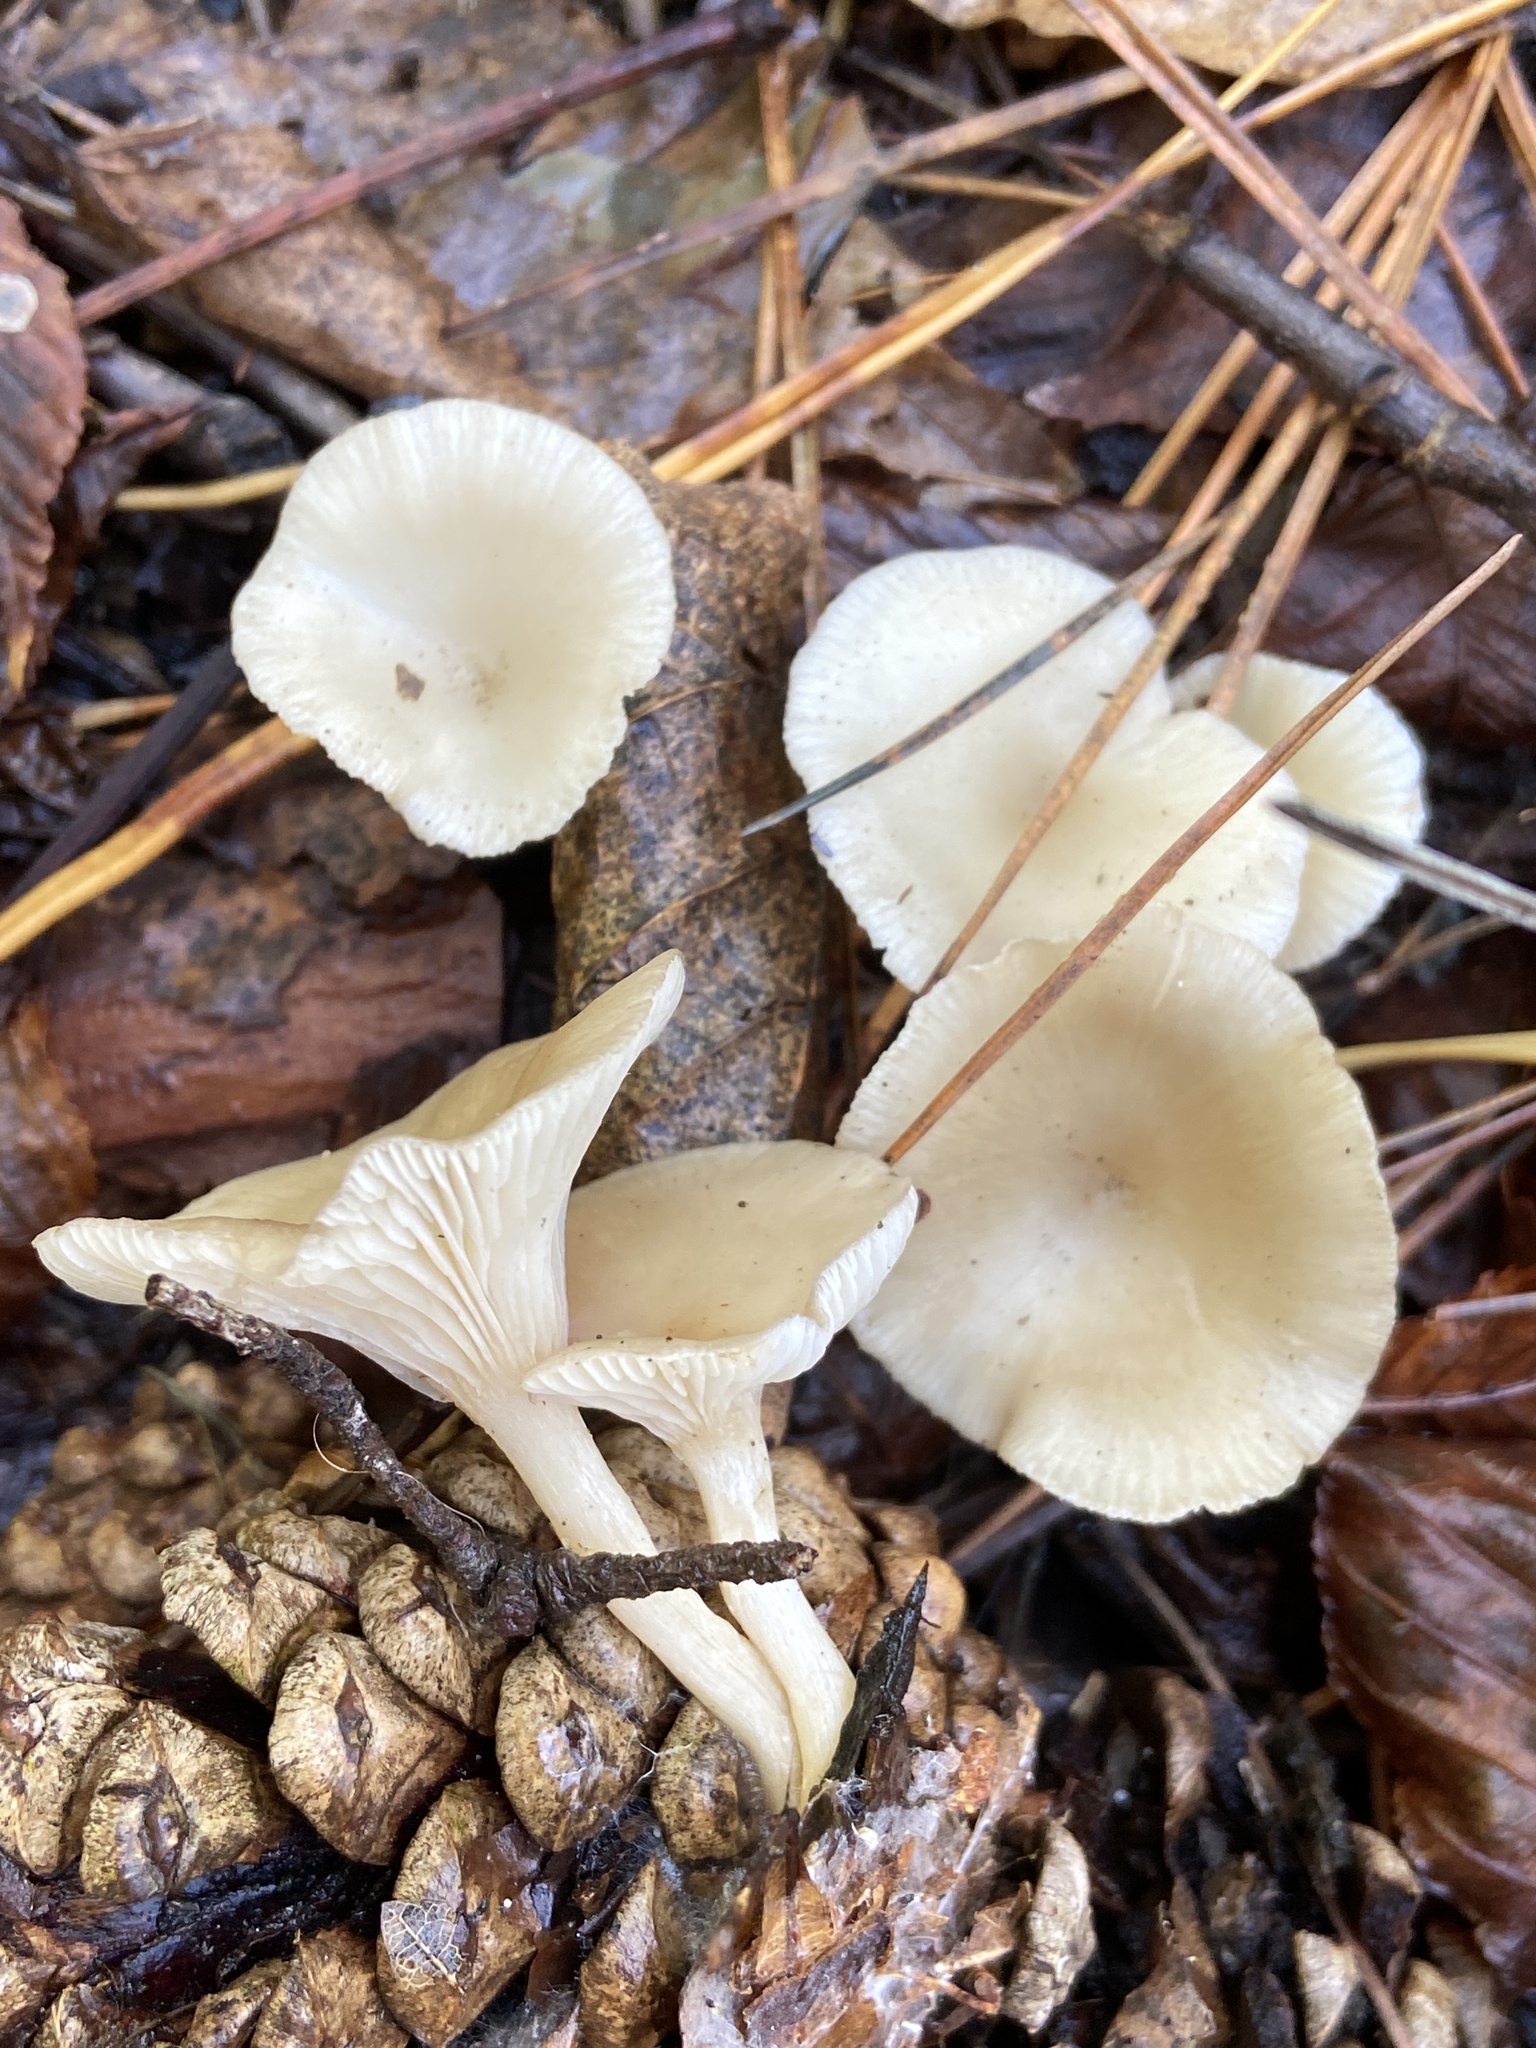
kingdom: Fungi
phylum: Basidiomycota
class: Agaricomycetes
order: Agaricales
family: Tricholomataceae
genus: Clitocybe
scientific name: Clitocybe fragrans
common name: Fragrant funnel
